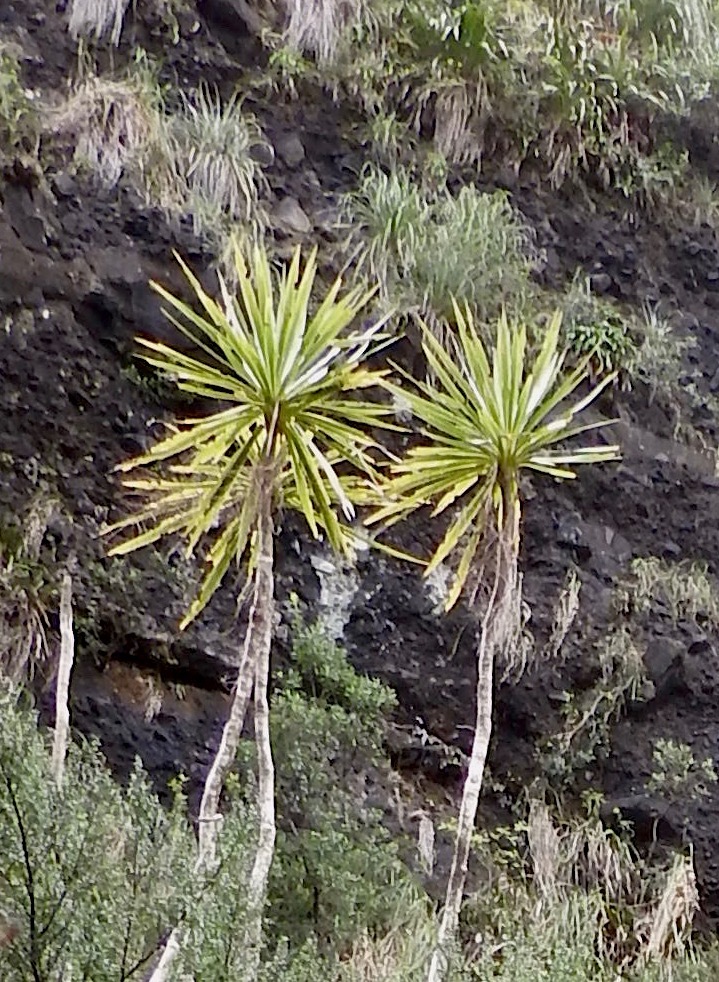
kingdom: Plantae
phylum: Tracheophyta
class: Liliopsida
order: Asparagales
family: Asparagaceae
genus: Cordyline
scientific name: Cordyline australis
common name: Cabbage-palm
